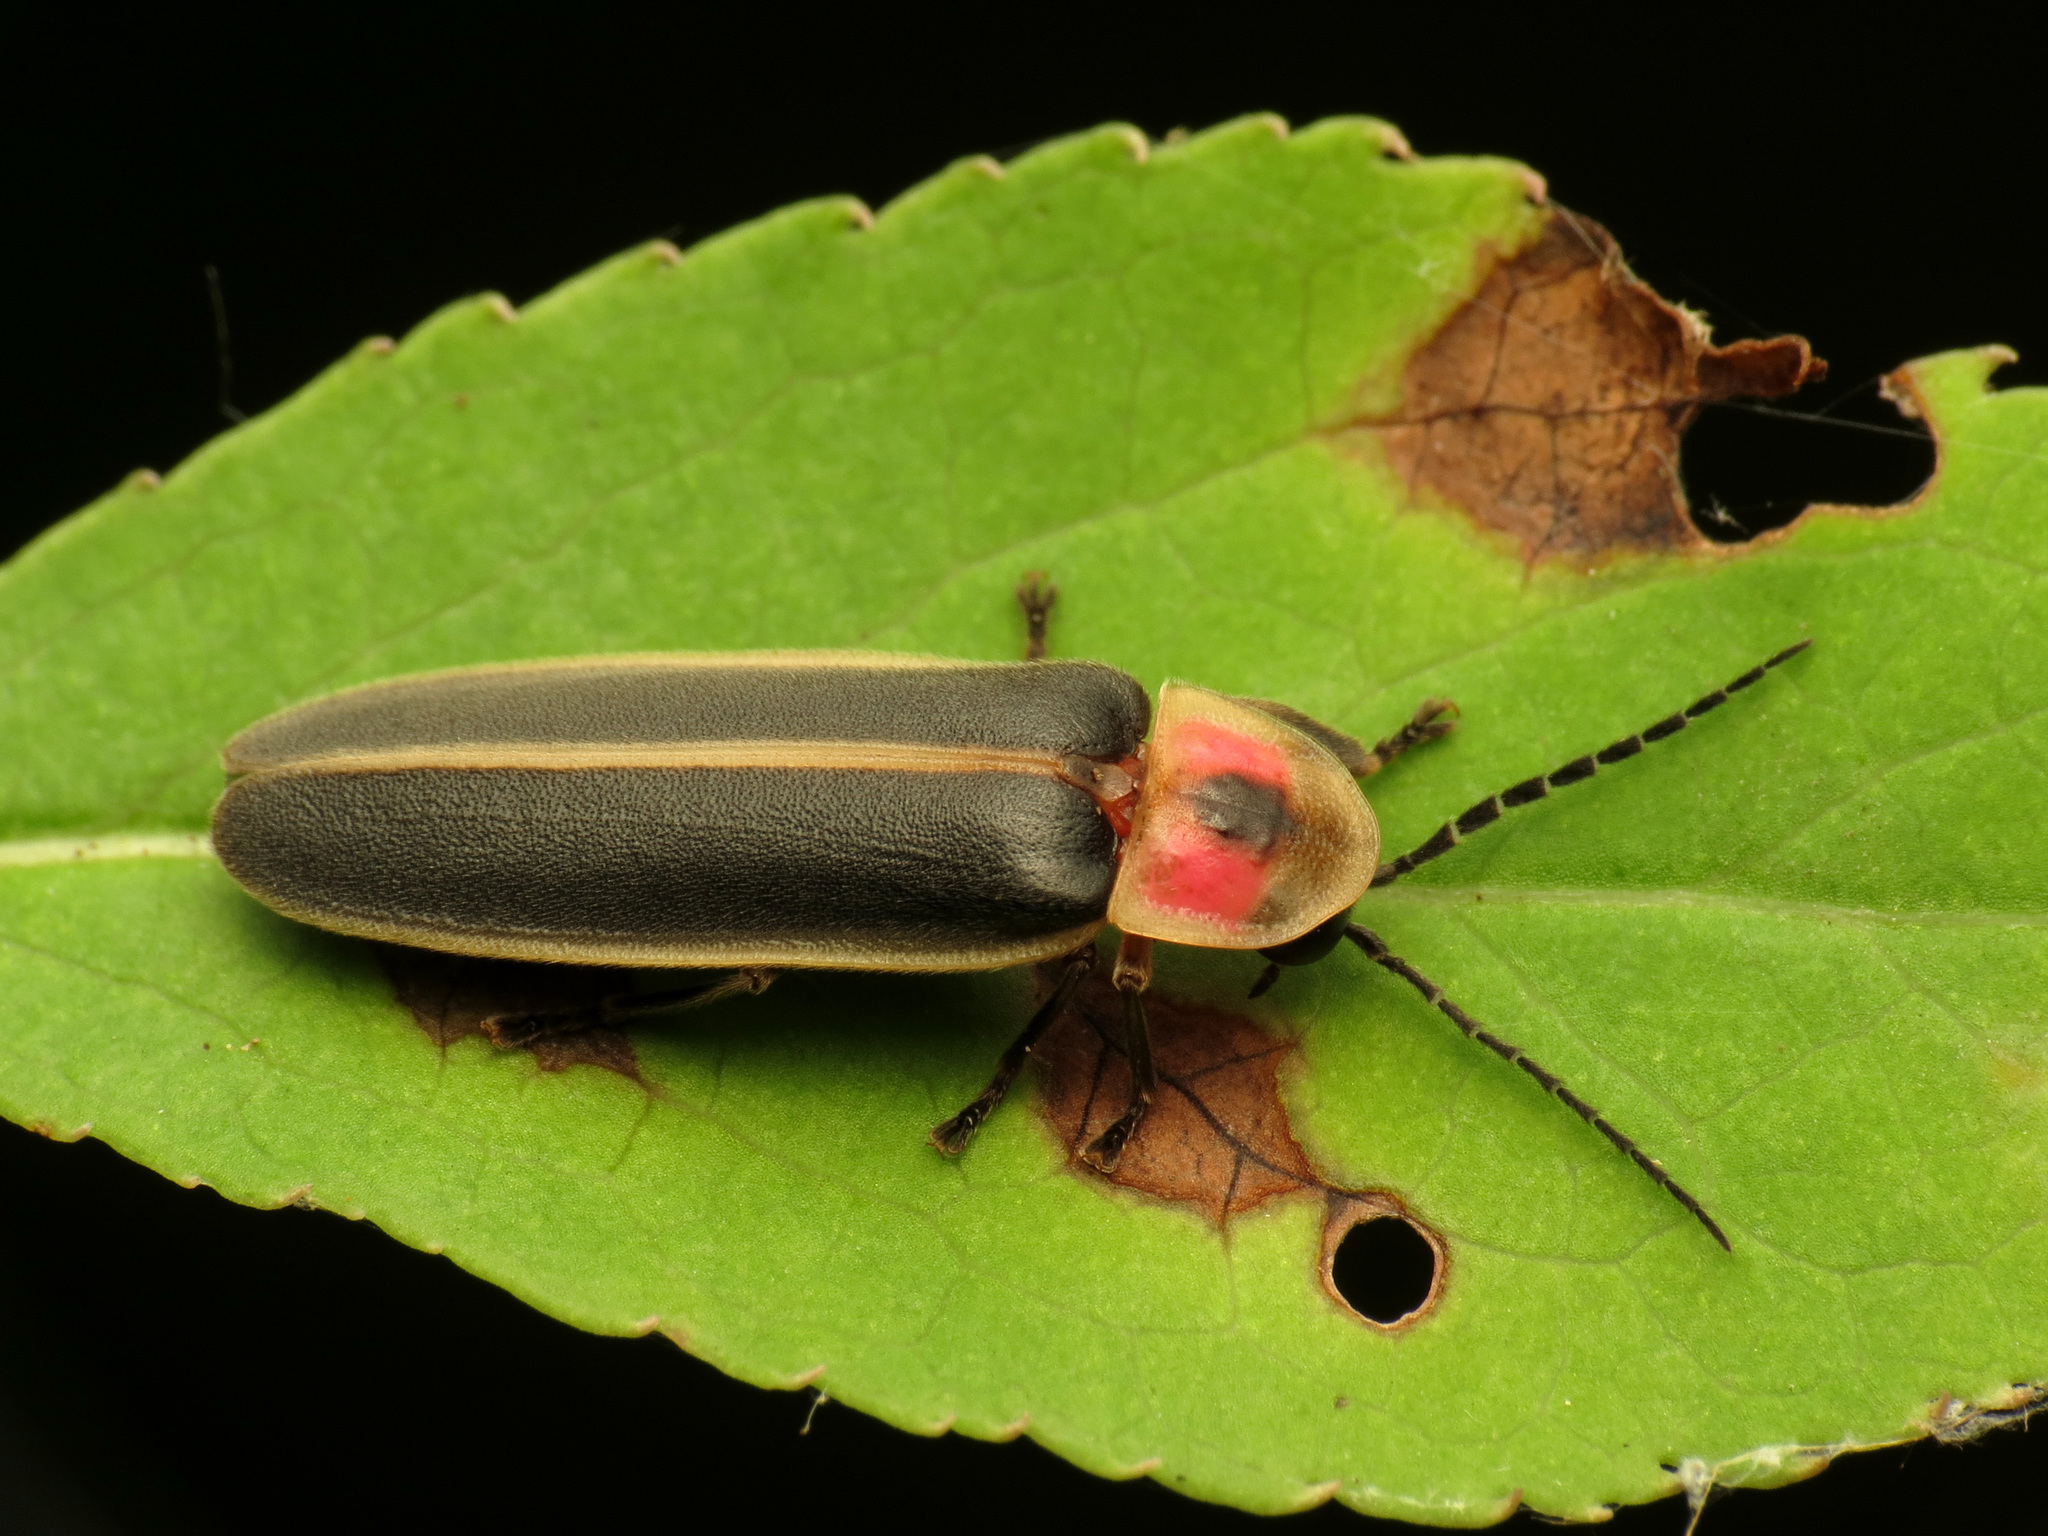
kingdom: Animalia
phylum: Arthropoda
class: Insecta
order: Coleoptera
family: Lampyridae
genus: Photinus
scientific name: Photinus pyralis
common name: Big dipper firefly
